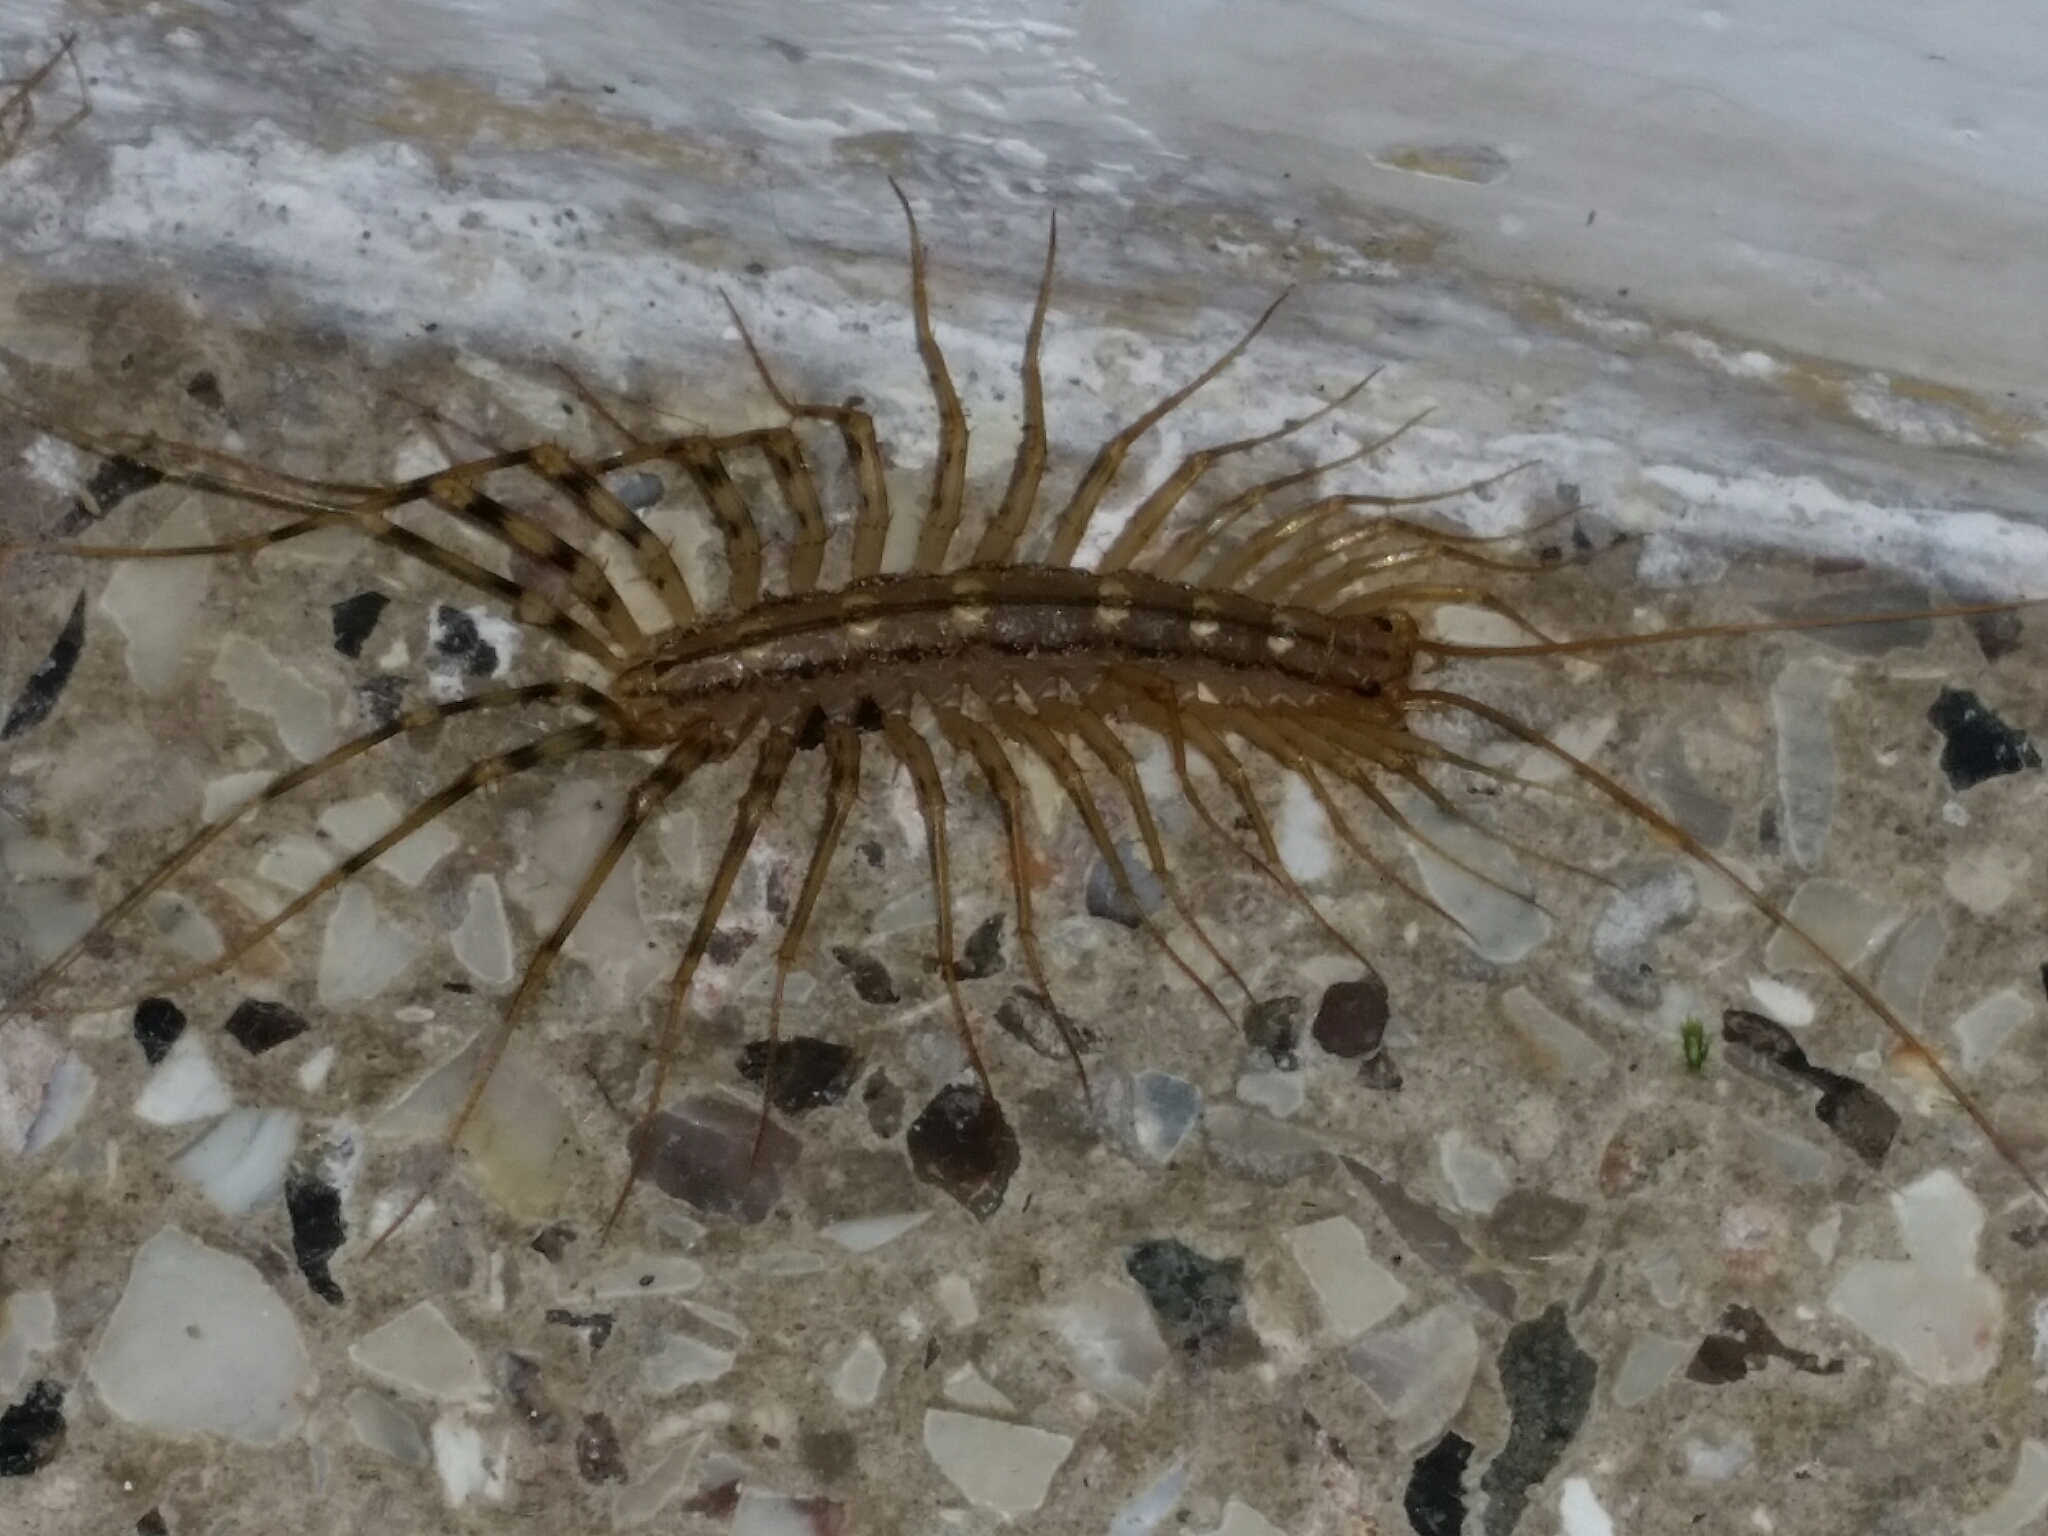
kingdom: Animalia
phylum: Arthropoda
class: Chilopoda
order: Scutigeromorpha
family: Scutigeridae
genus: Scutigera
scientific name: Scutigera coleoptrata
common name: House centipede
